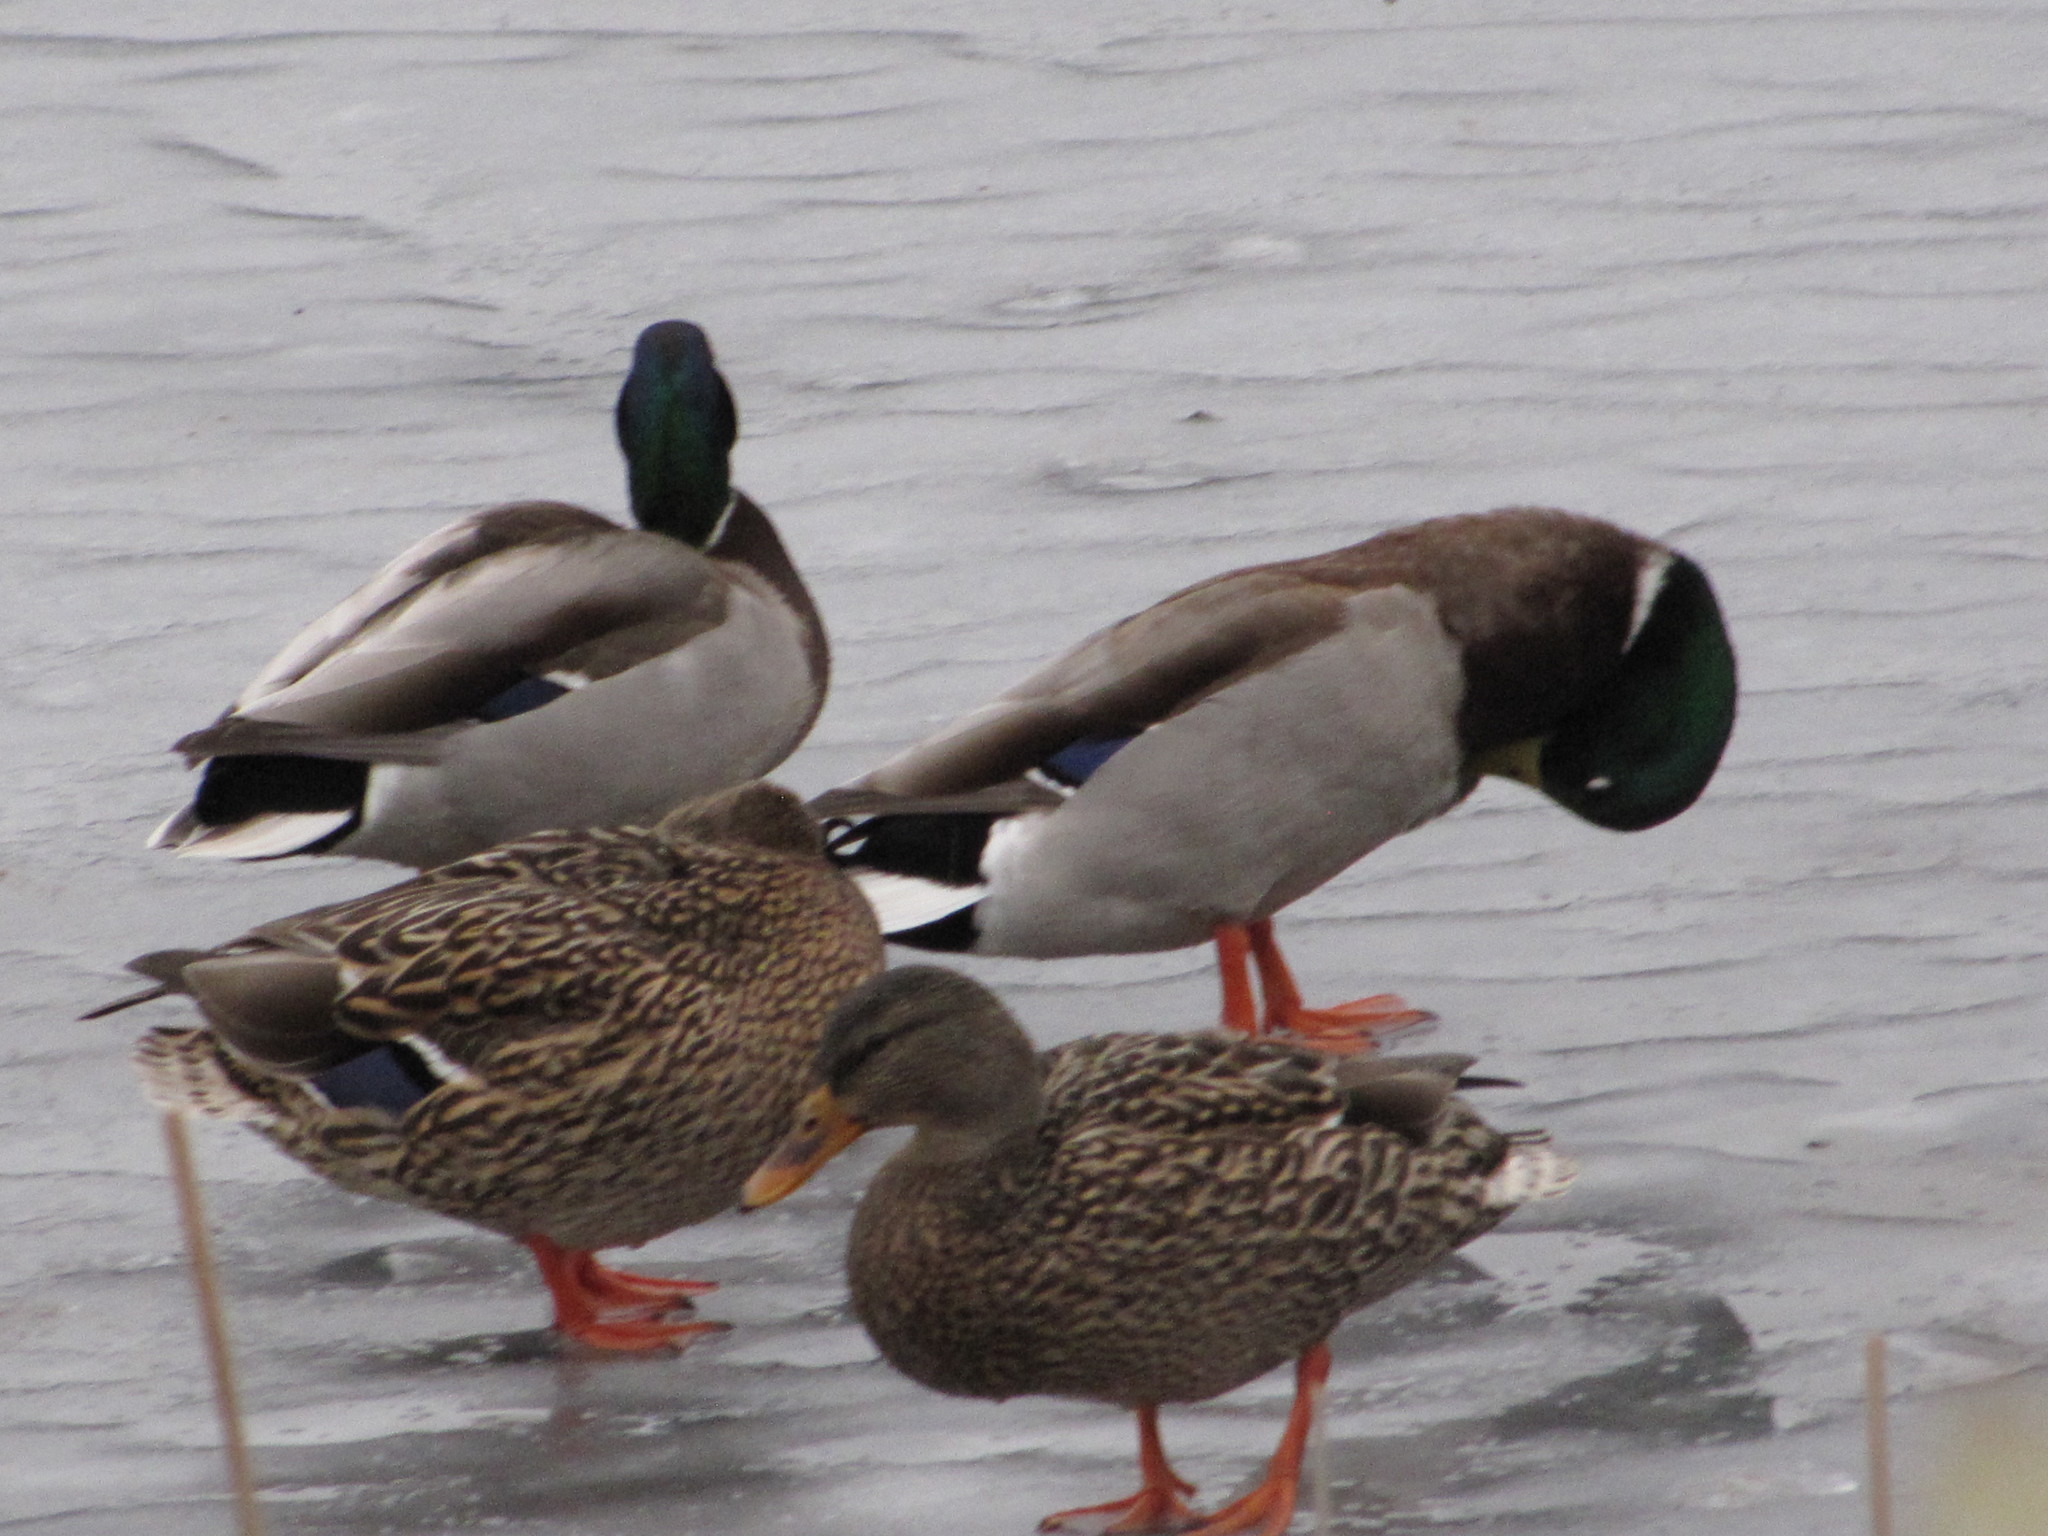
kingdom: Animalia
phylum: Chordata
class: Aves
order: Anseriformes
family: Anatidae
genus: Anas
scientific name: Anas platyrhynchos
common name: Mallard
